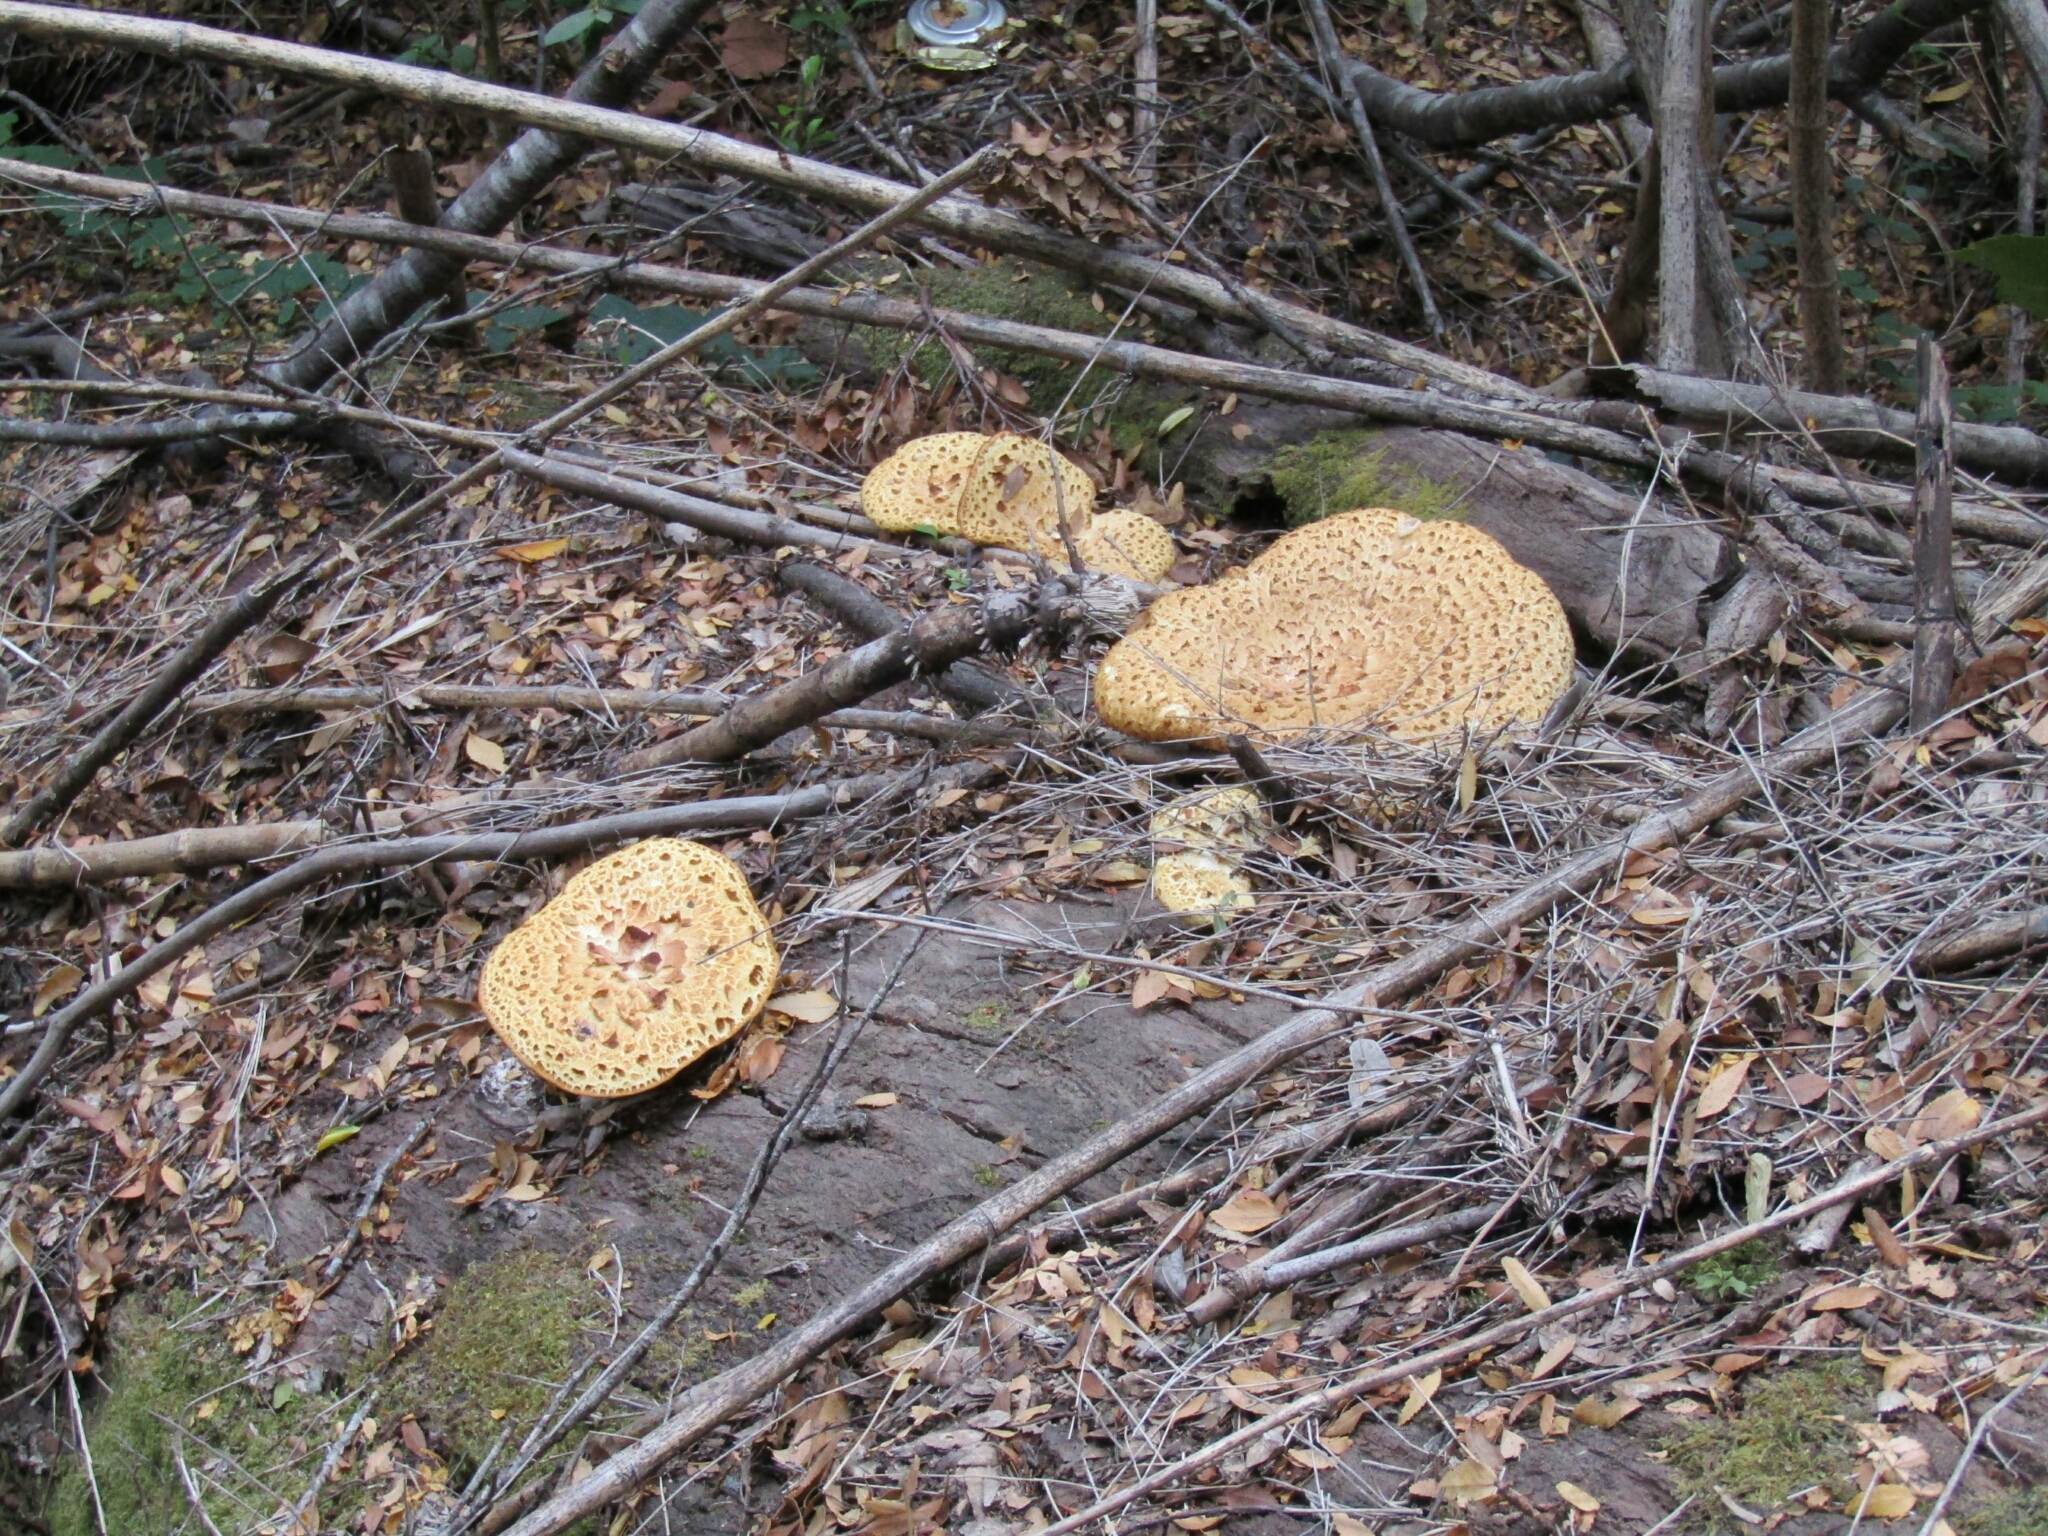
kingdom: Fungi
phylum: Basidiomycota
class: Agaricomycetes
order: Polyporales
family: Fomitopsidaceae
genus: Fomitopsis
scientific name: Fomitopsis
